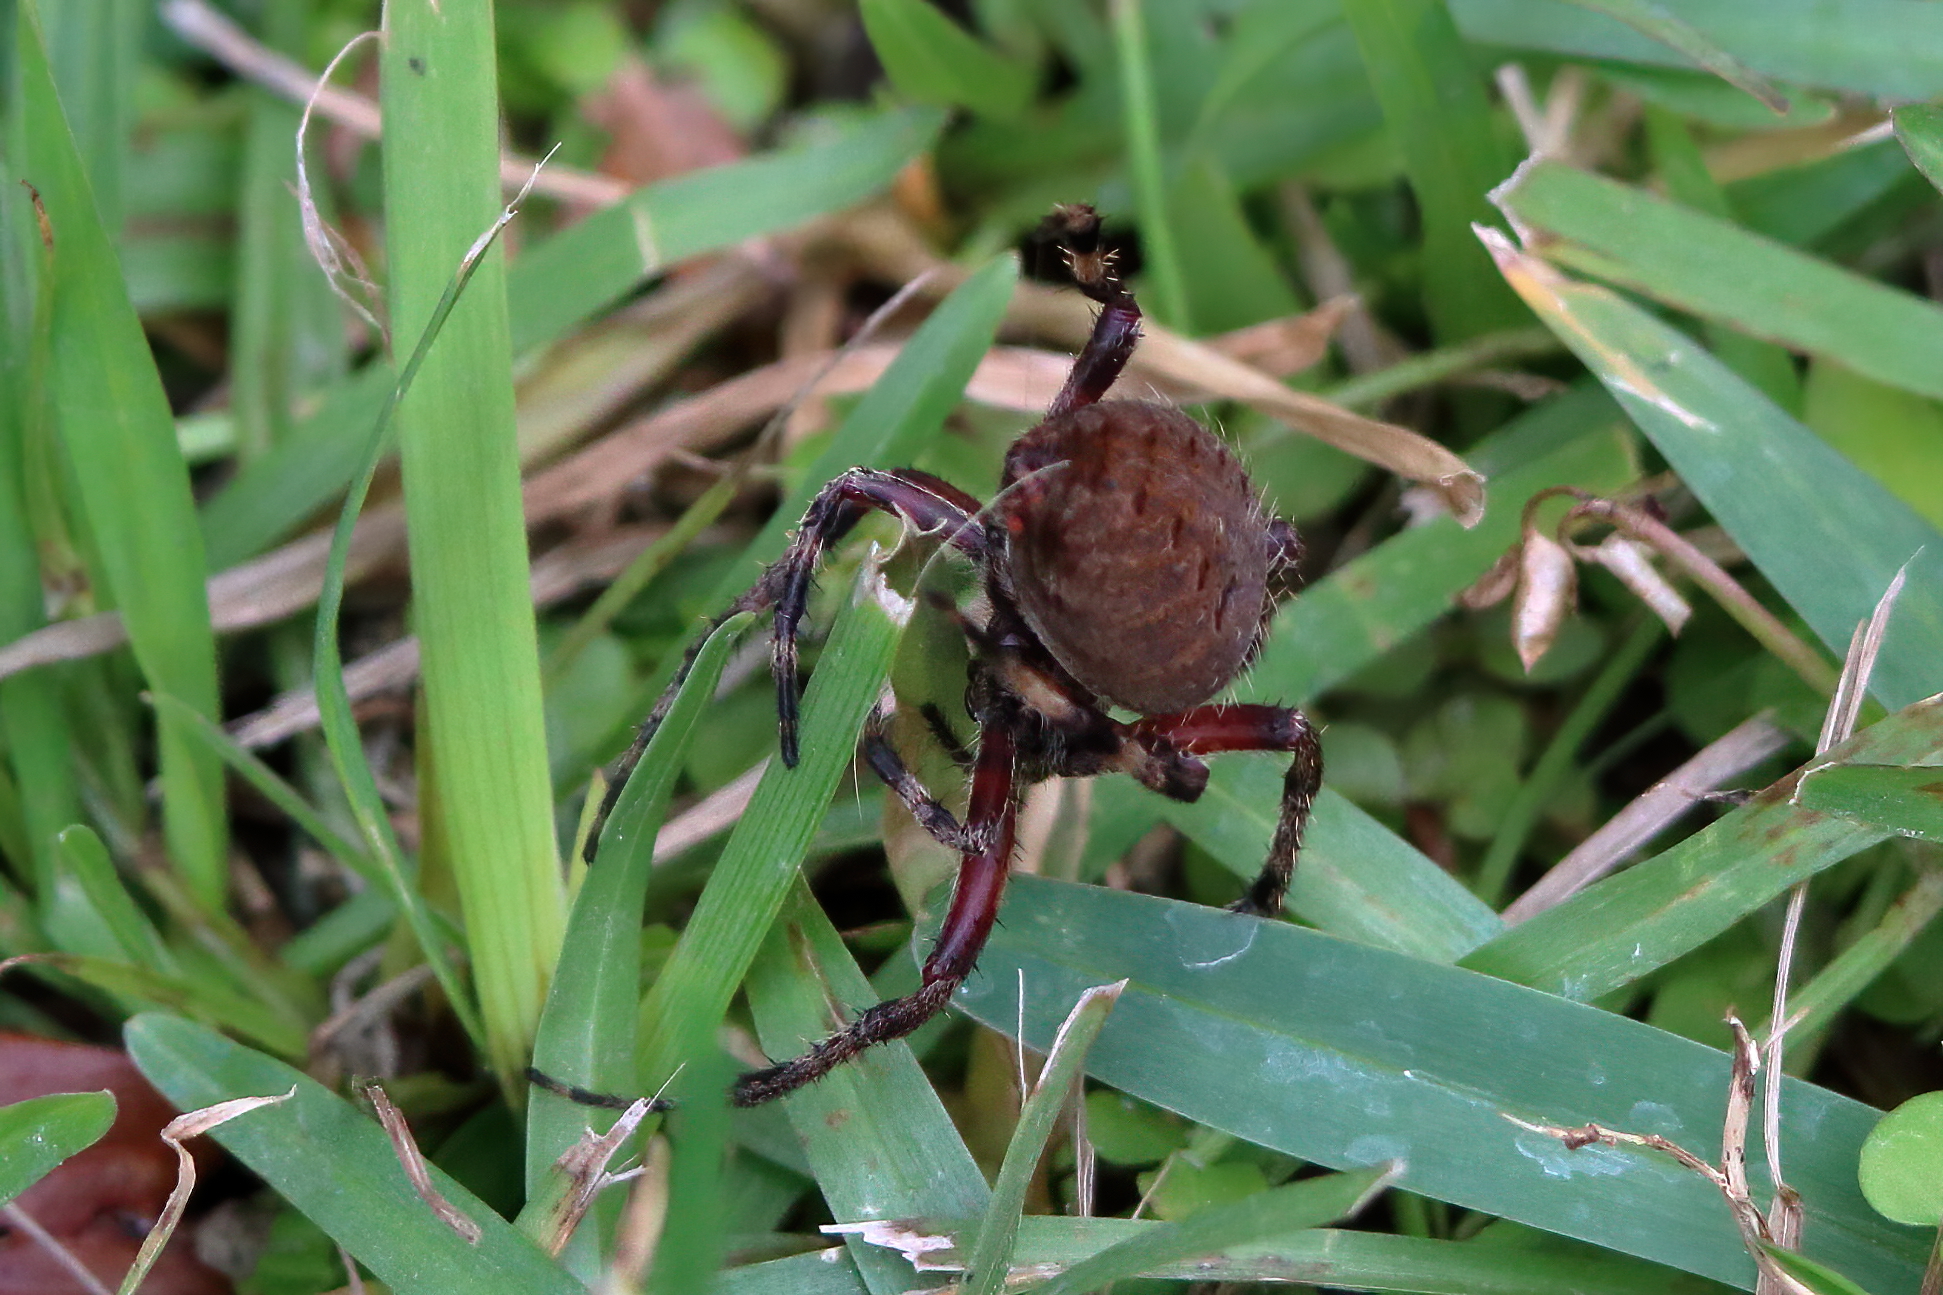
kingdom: Animalia
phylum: Arthropoda
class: Arachnida
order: Araneae
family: Araneidae
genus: Neoscona
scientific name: Neoscona crucifera
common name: Spotted orbweaver
